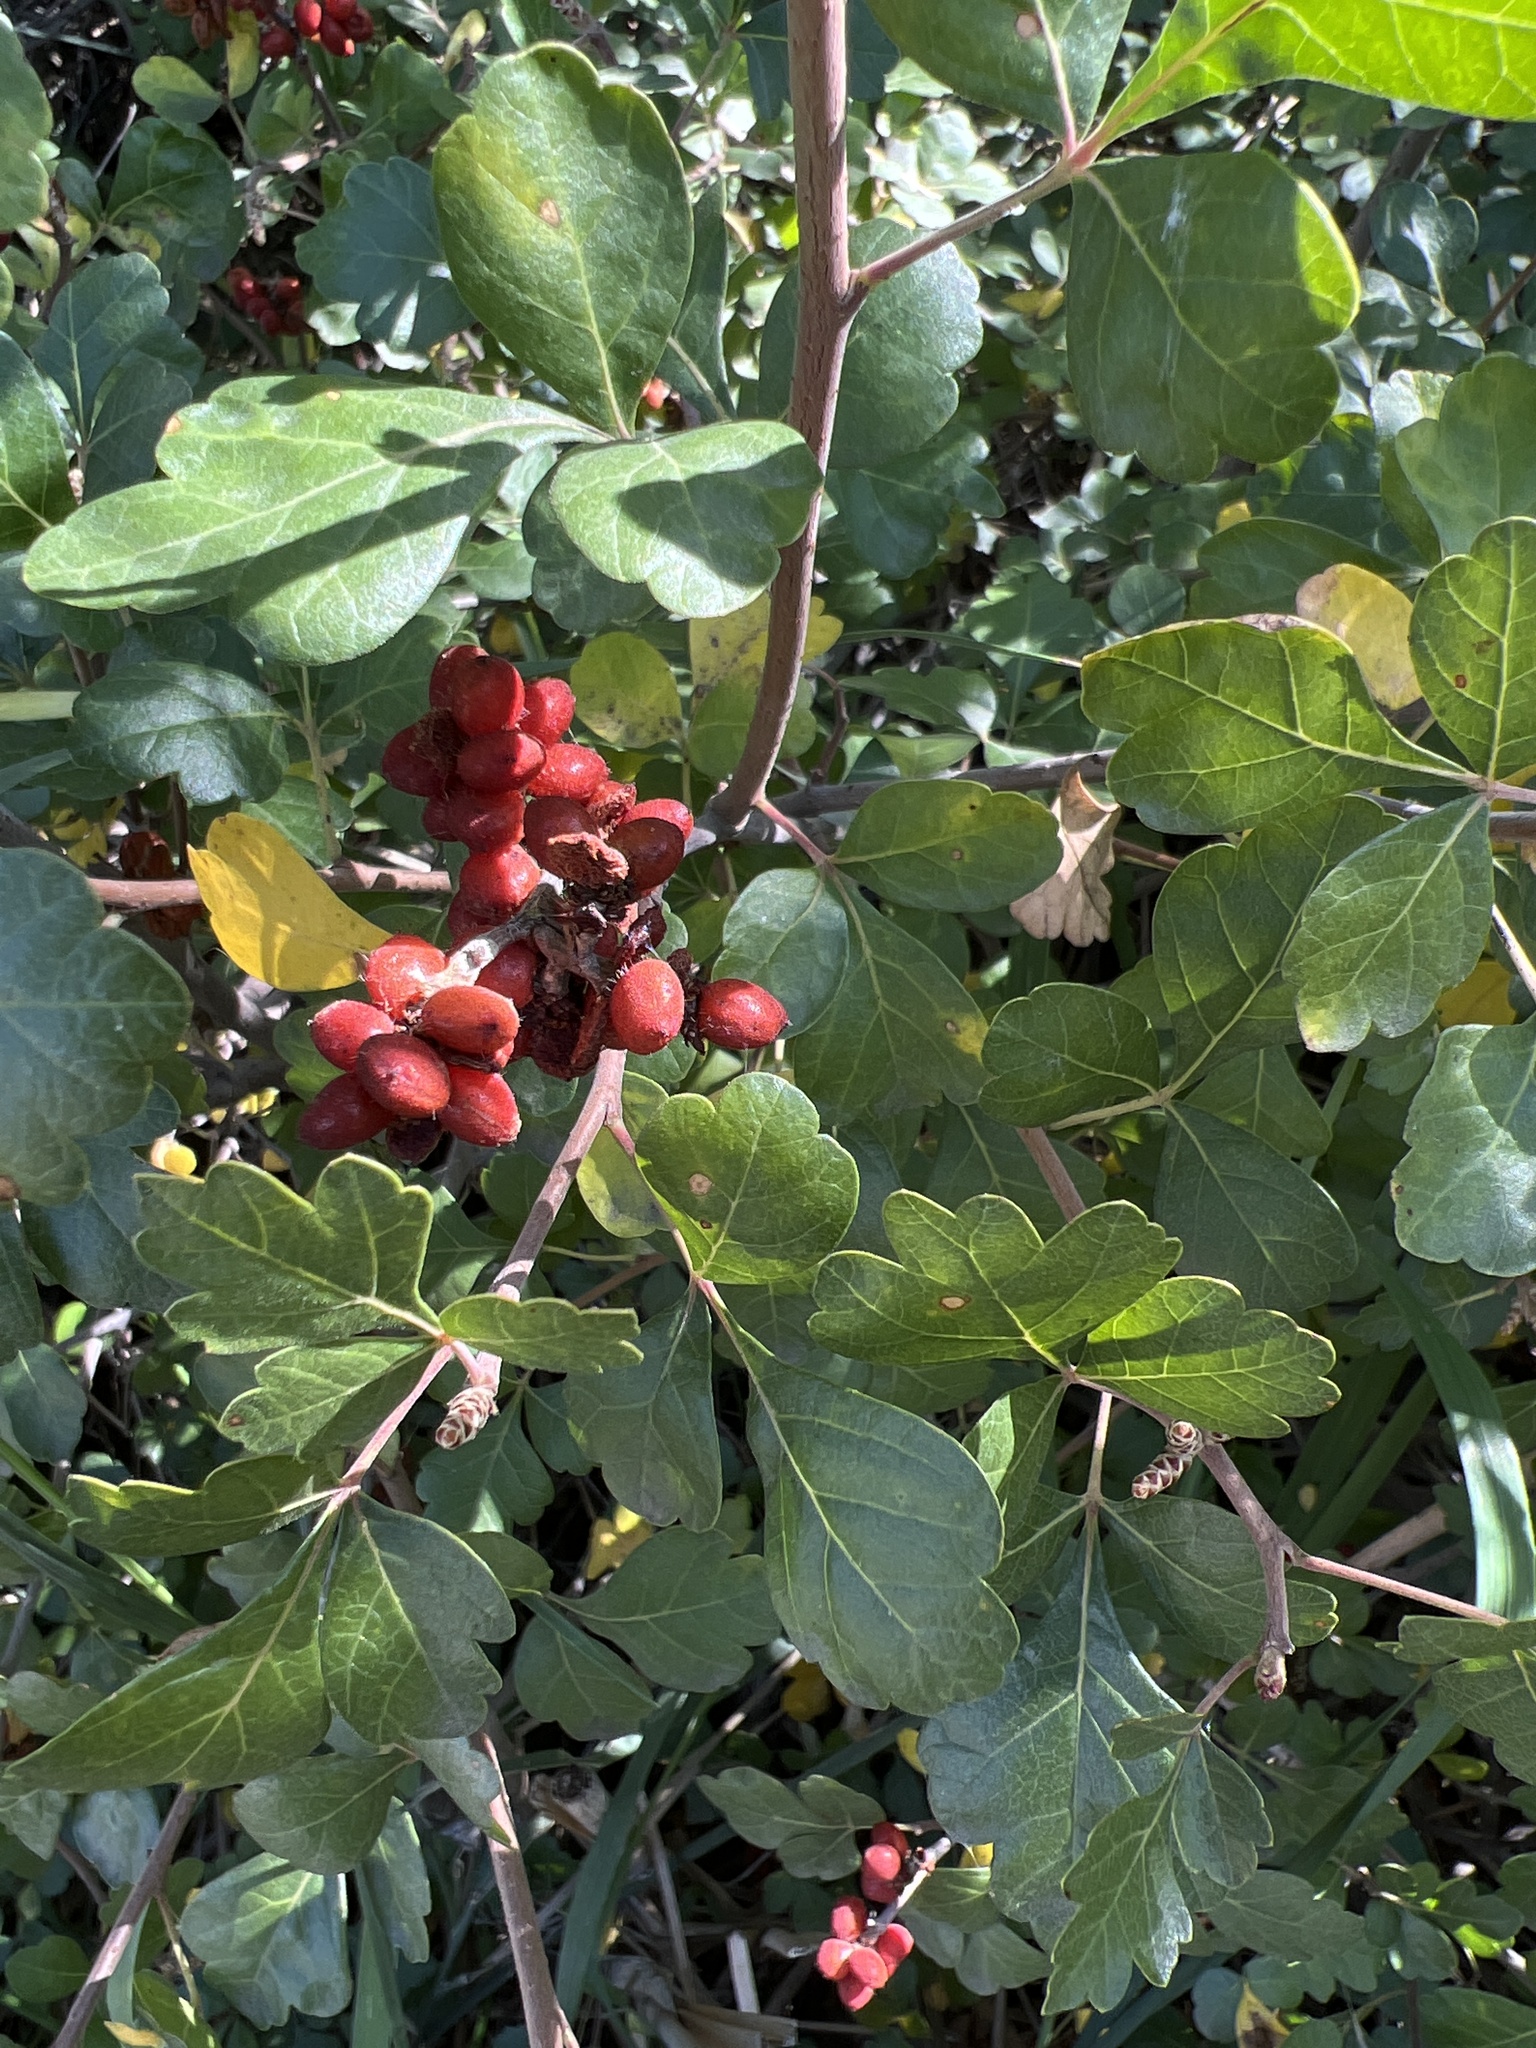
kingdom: Plantae
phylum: Tracheophyta
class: Magnoliopsida
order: Sapindales
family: Anacardiaceae
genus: Rhus
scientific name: Rhus trilobata
